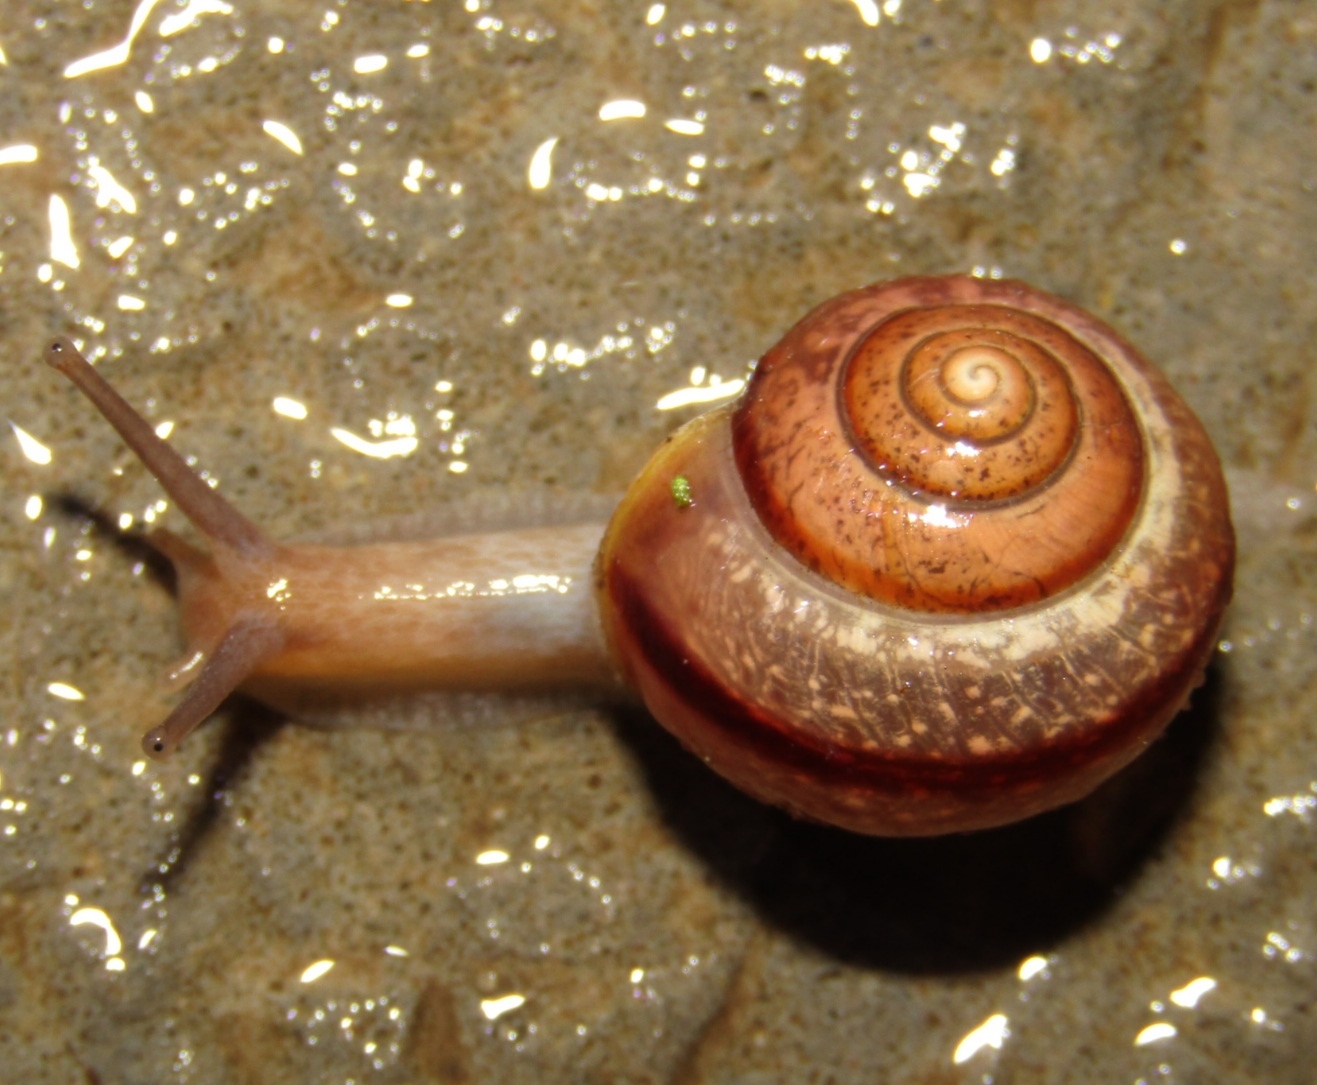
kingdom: Animalia
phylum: Mollusca
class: Gastropoda
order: Stylommatophora
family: Camaenidae
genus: Fruticicola
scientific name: Fruticicola fruticum
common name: Bush snail
